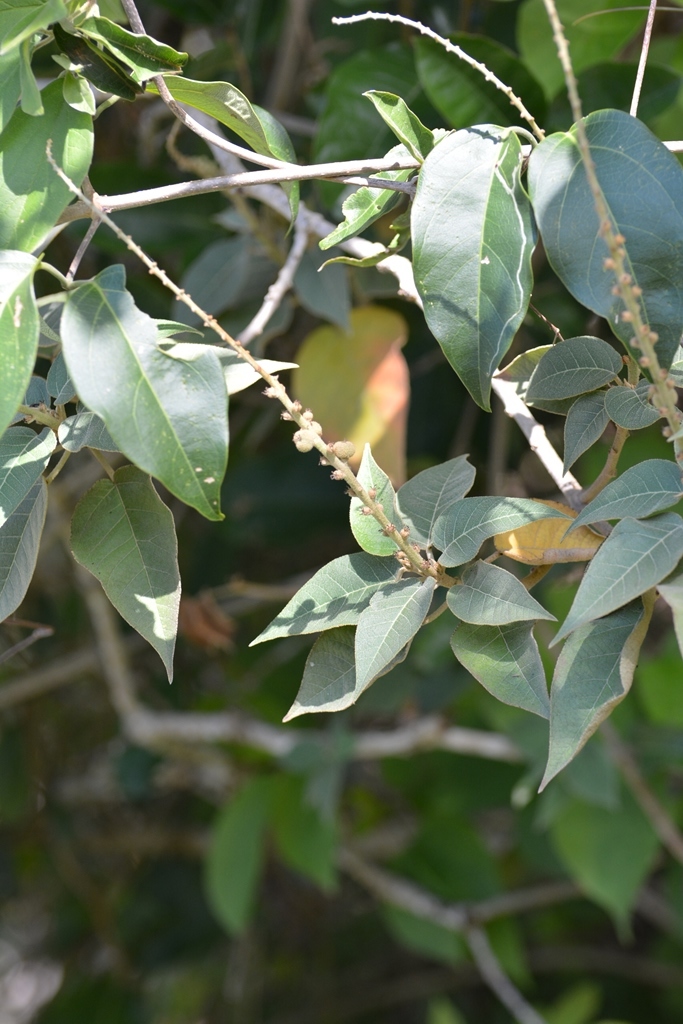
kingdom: Plantae
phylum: Tracheophyta
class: Magnoliopsida
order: Malpighiales
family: Euphorbiaceae
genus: Croton
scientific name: Croton xalapensis
